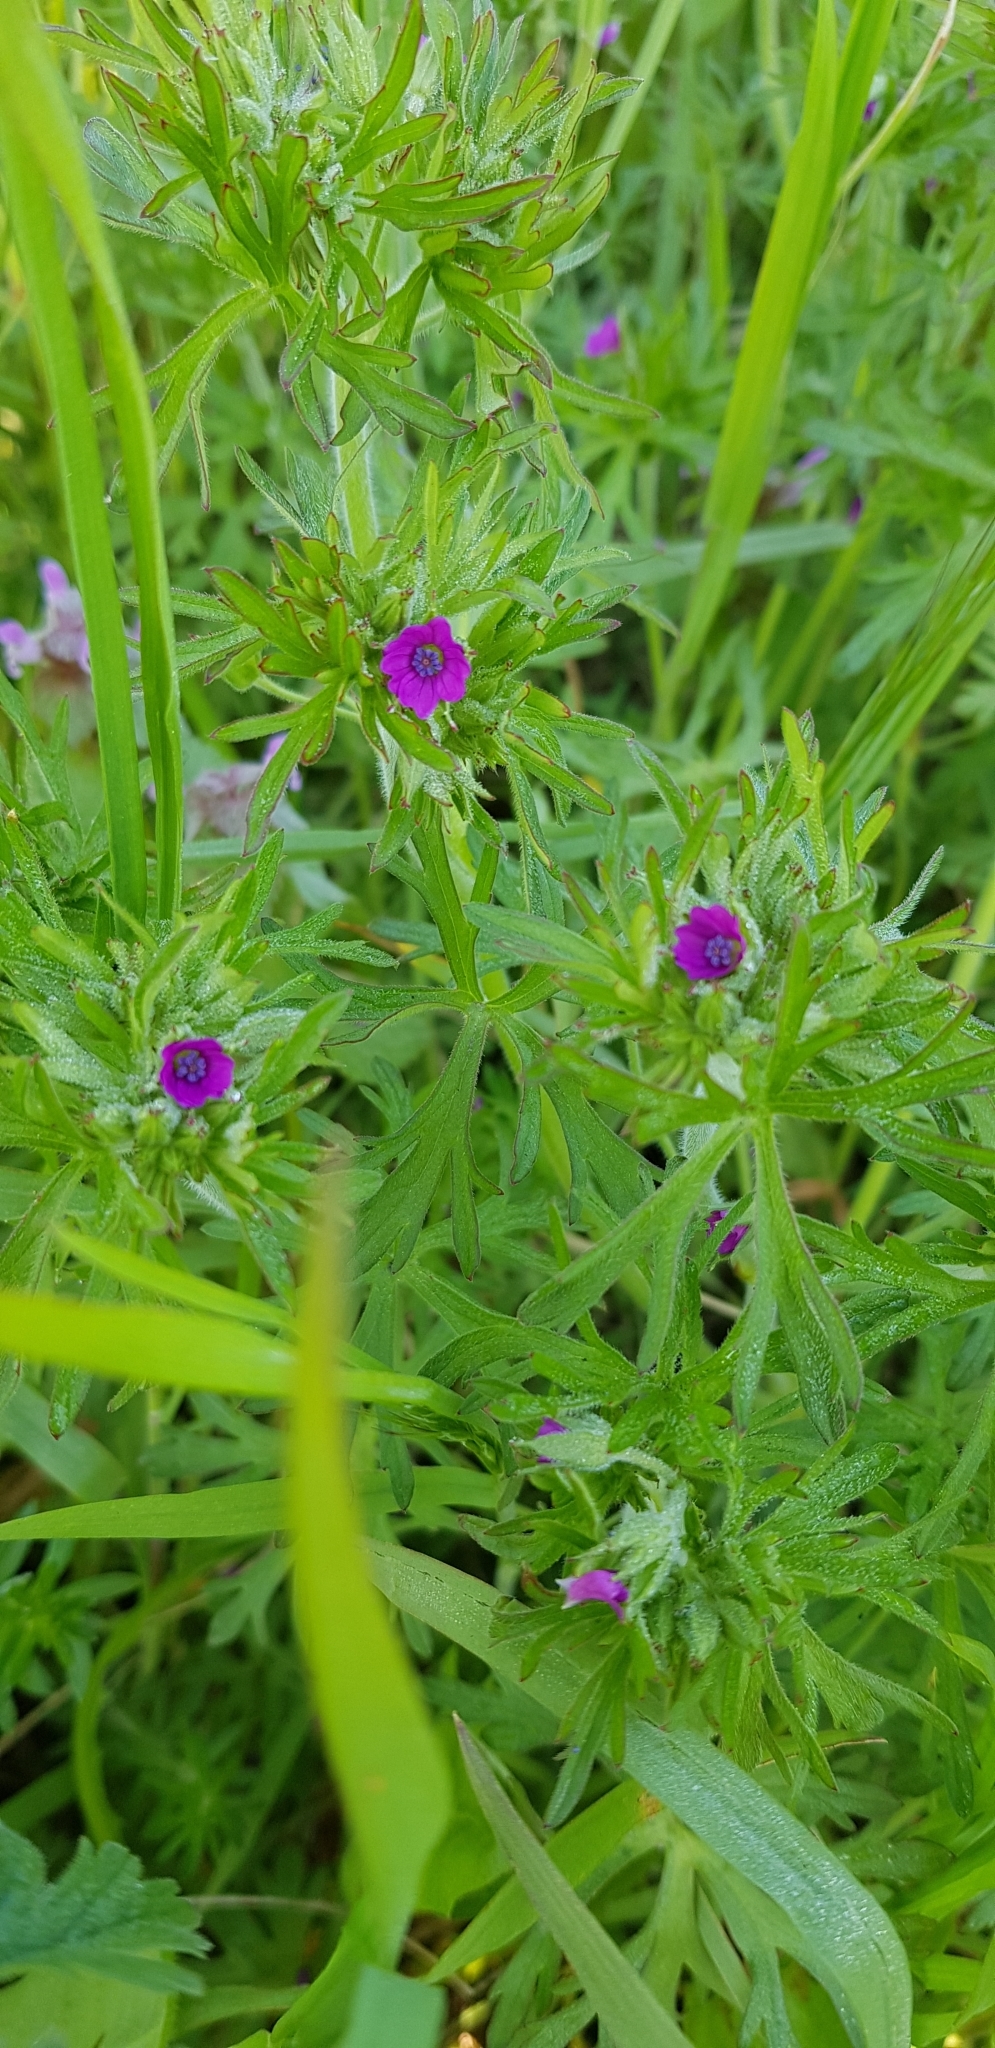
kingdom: Plantae
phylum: Tracheophyta
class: Magnoliopsida
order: Geraniales
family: Geraniaceae
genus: Geranium
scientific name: Geranium dissectum
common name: Cut-leaved crane's-bill
